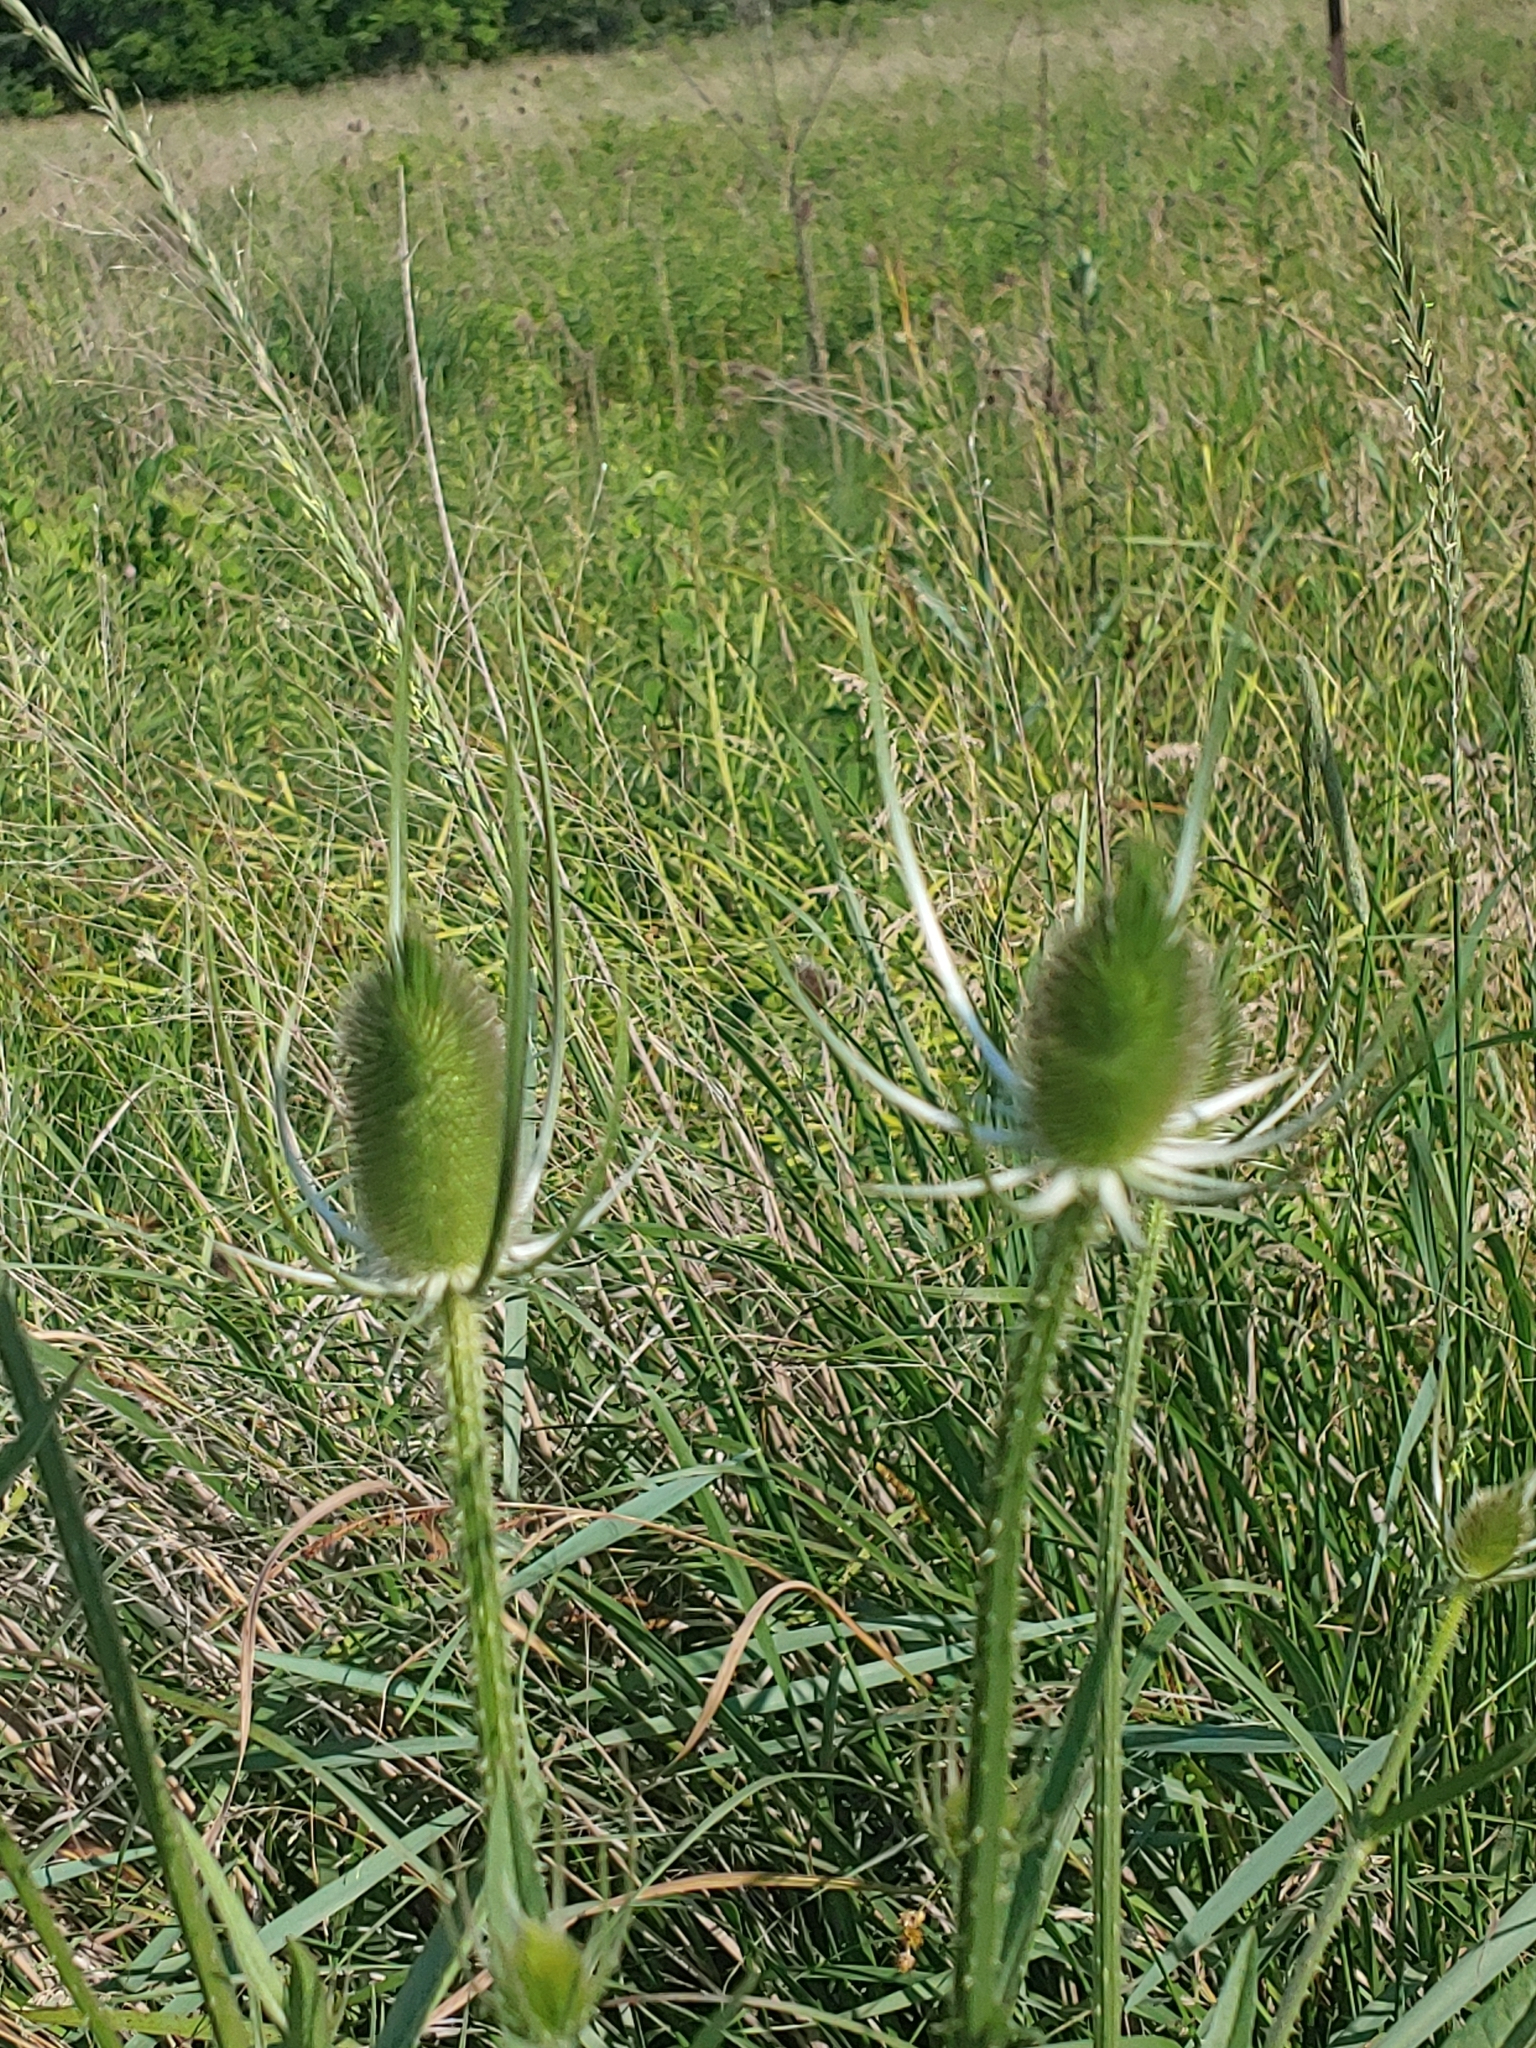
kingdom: Plantae
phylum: Tracheophyta
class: Magnoliopsida
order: Dipsacales
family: Caprifoliaceae
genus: Dipsacus
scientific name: Dipsacus fullonum
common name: Teasel
